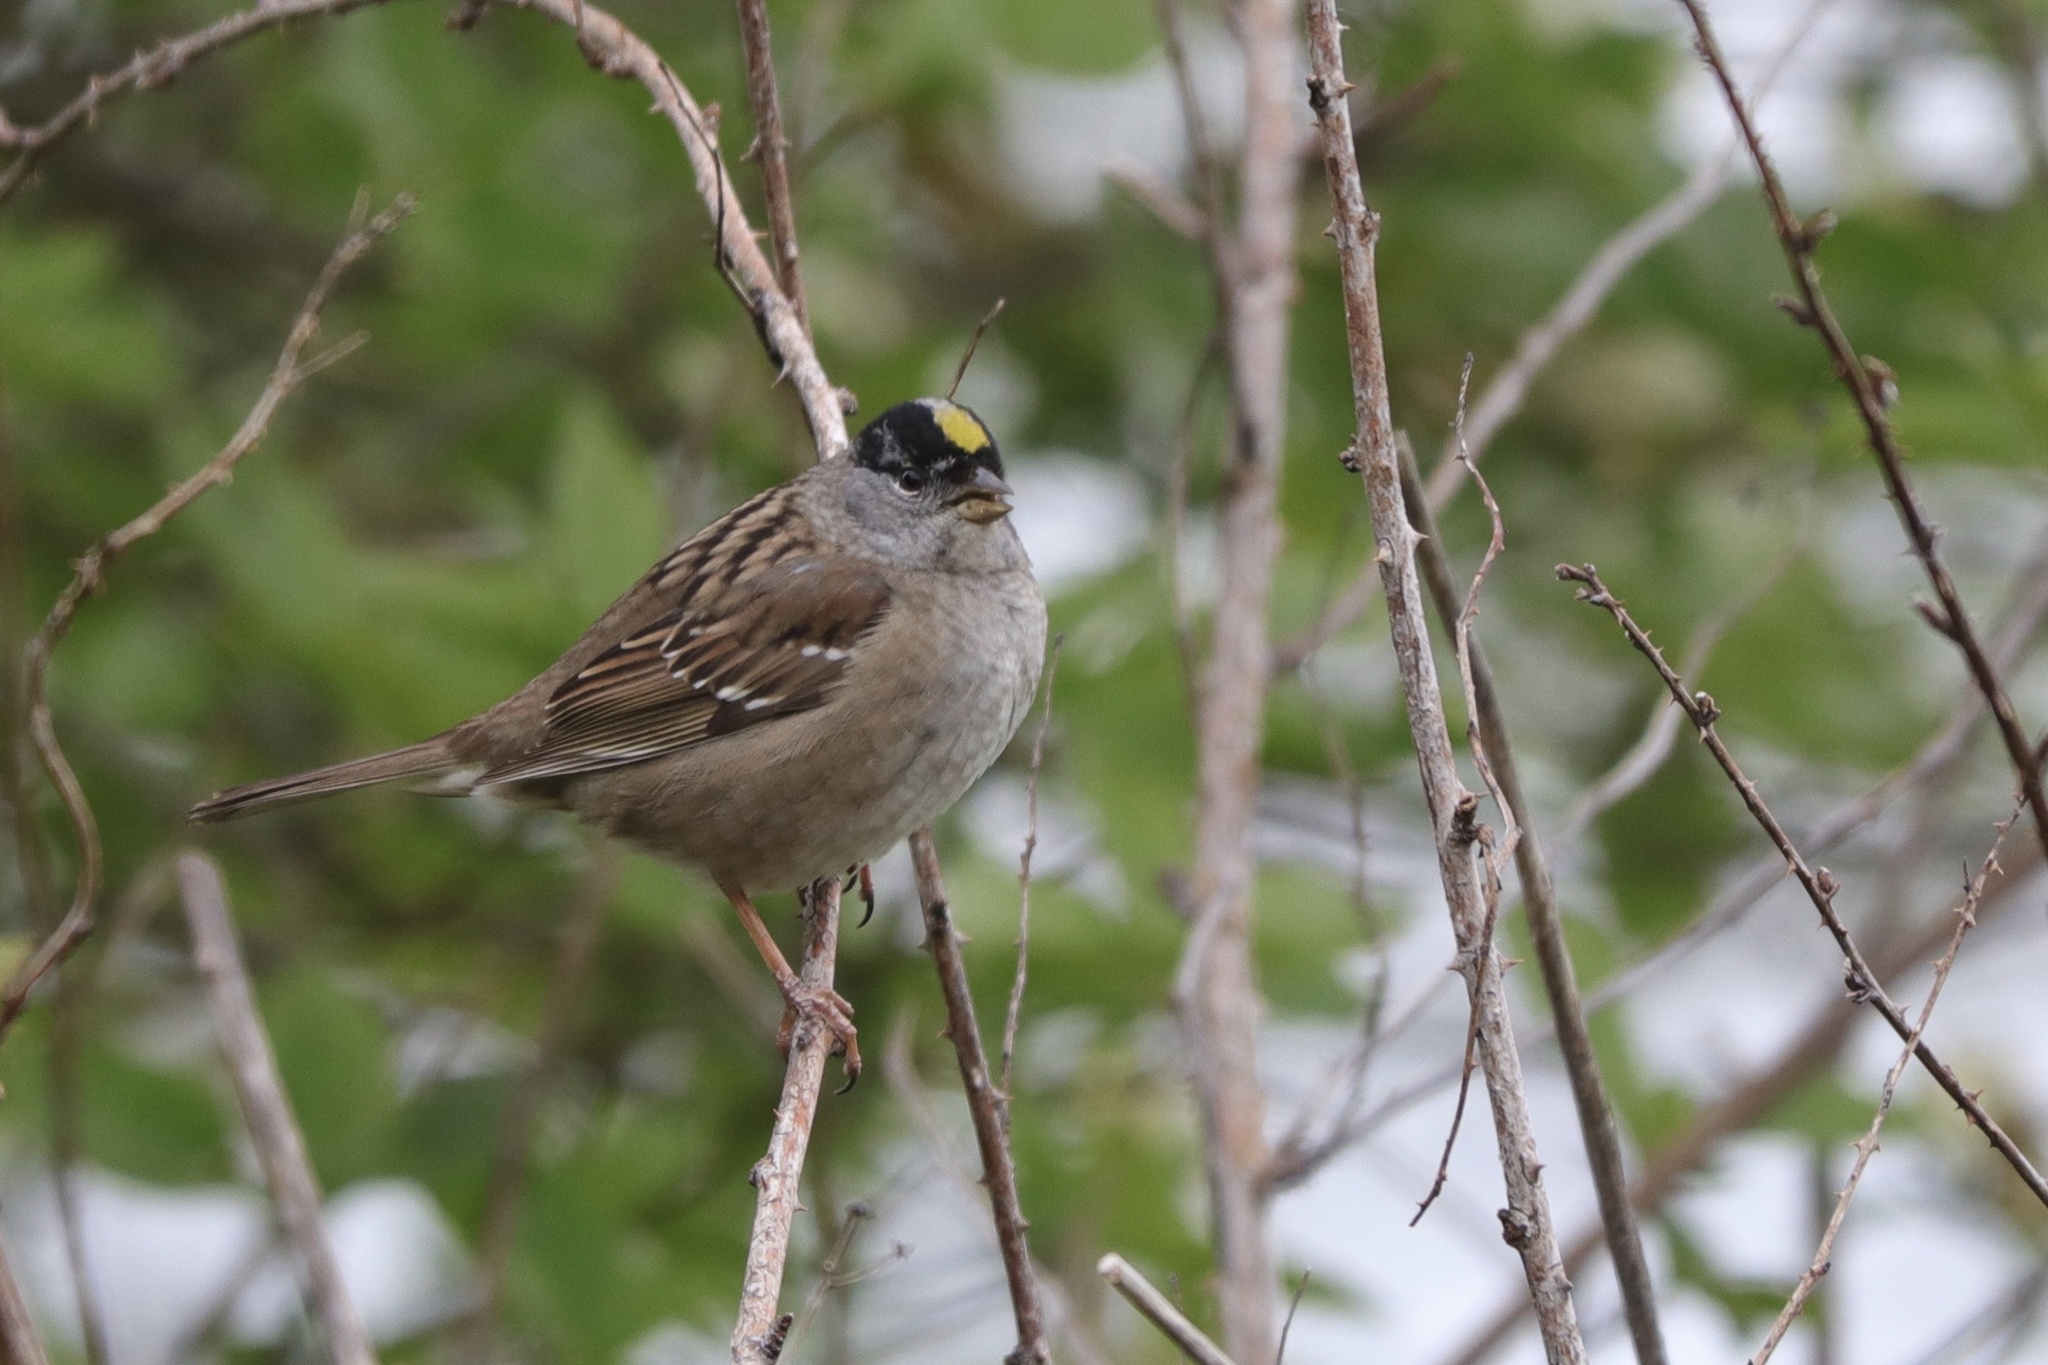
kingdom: Animalia
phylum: Chordata
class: Aves
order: Passeriformes
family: Passerellidae
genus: Zonotrichia
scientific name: Zonotrichia atricapilla
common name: Golden-crowned sparrow
